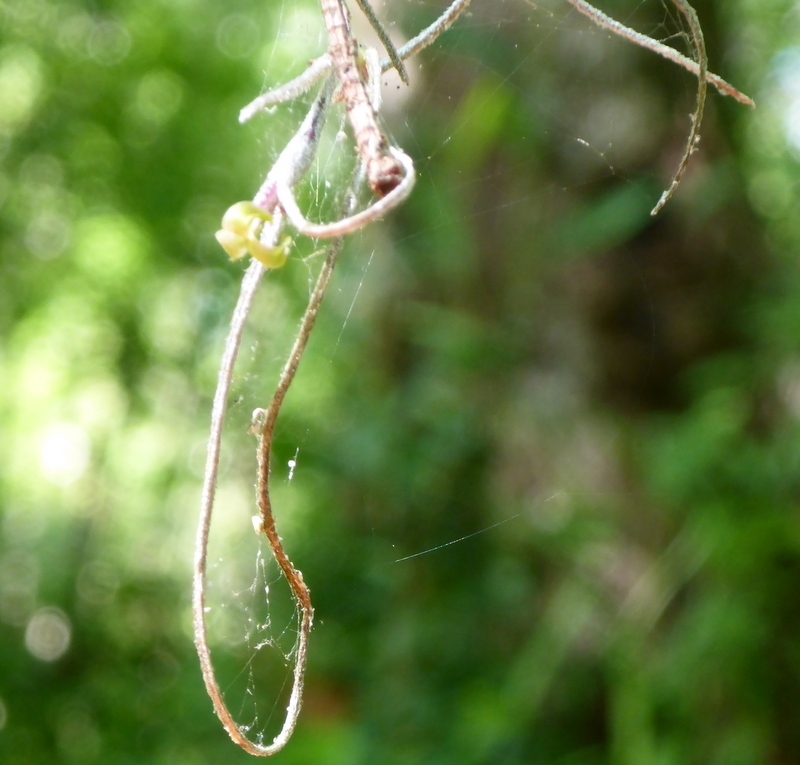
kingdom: Plantae
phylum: Tracheophyta
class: Liliopsida
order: Poales
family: Bromeliaceae
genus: Tillandsia
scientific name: Tillandsia usneoides
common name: Spanish moss
